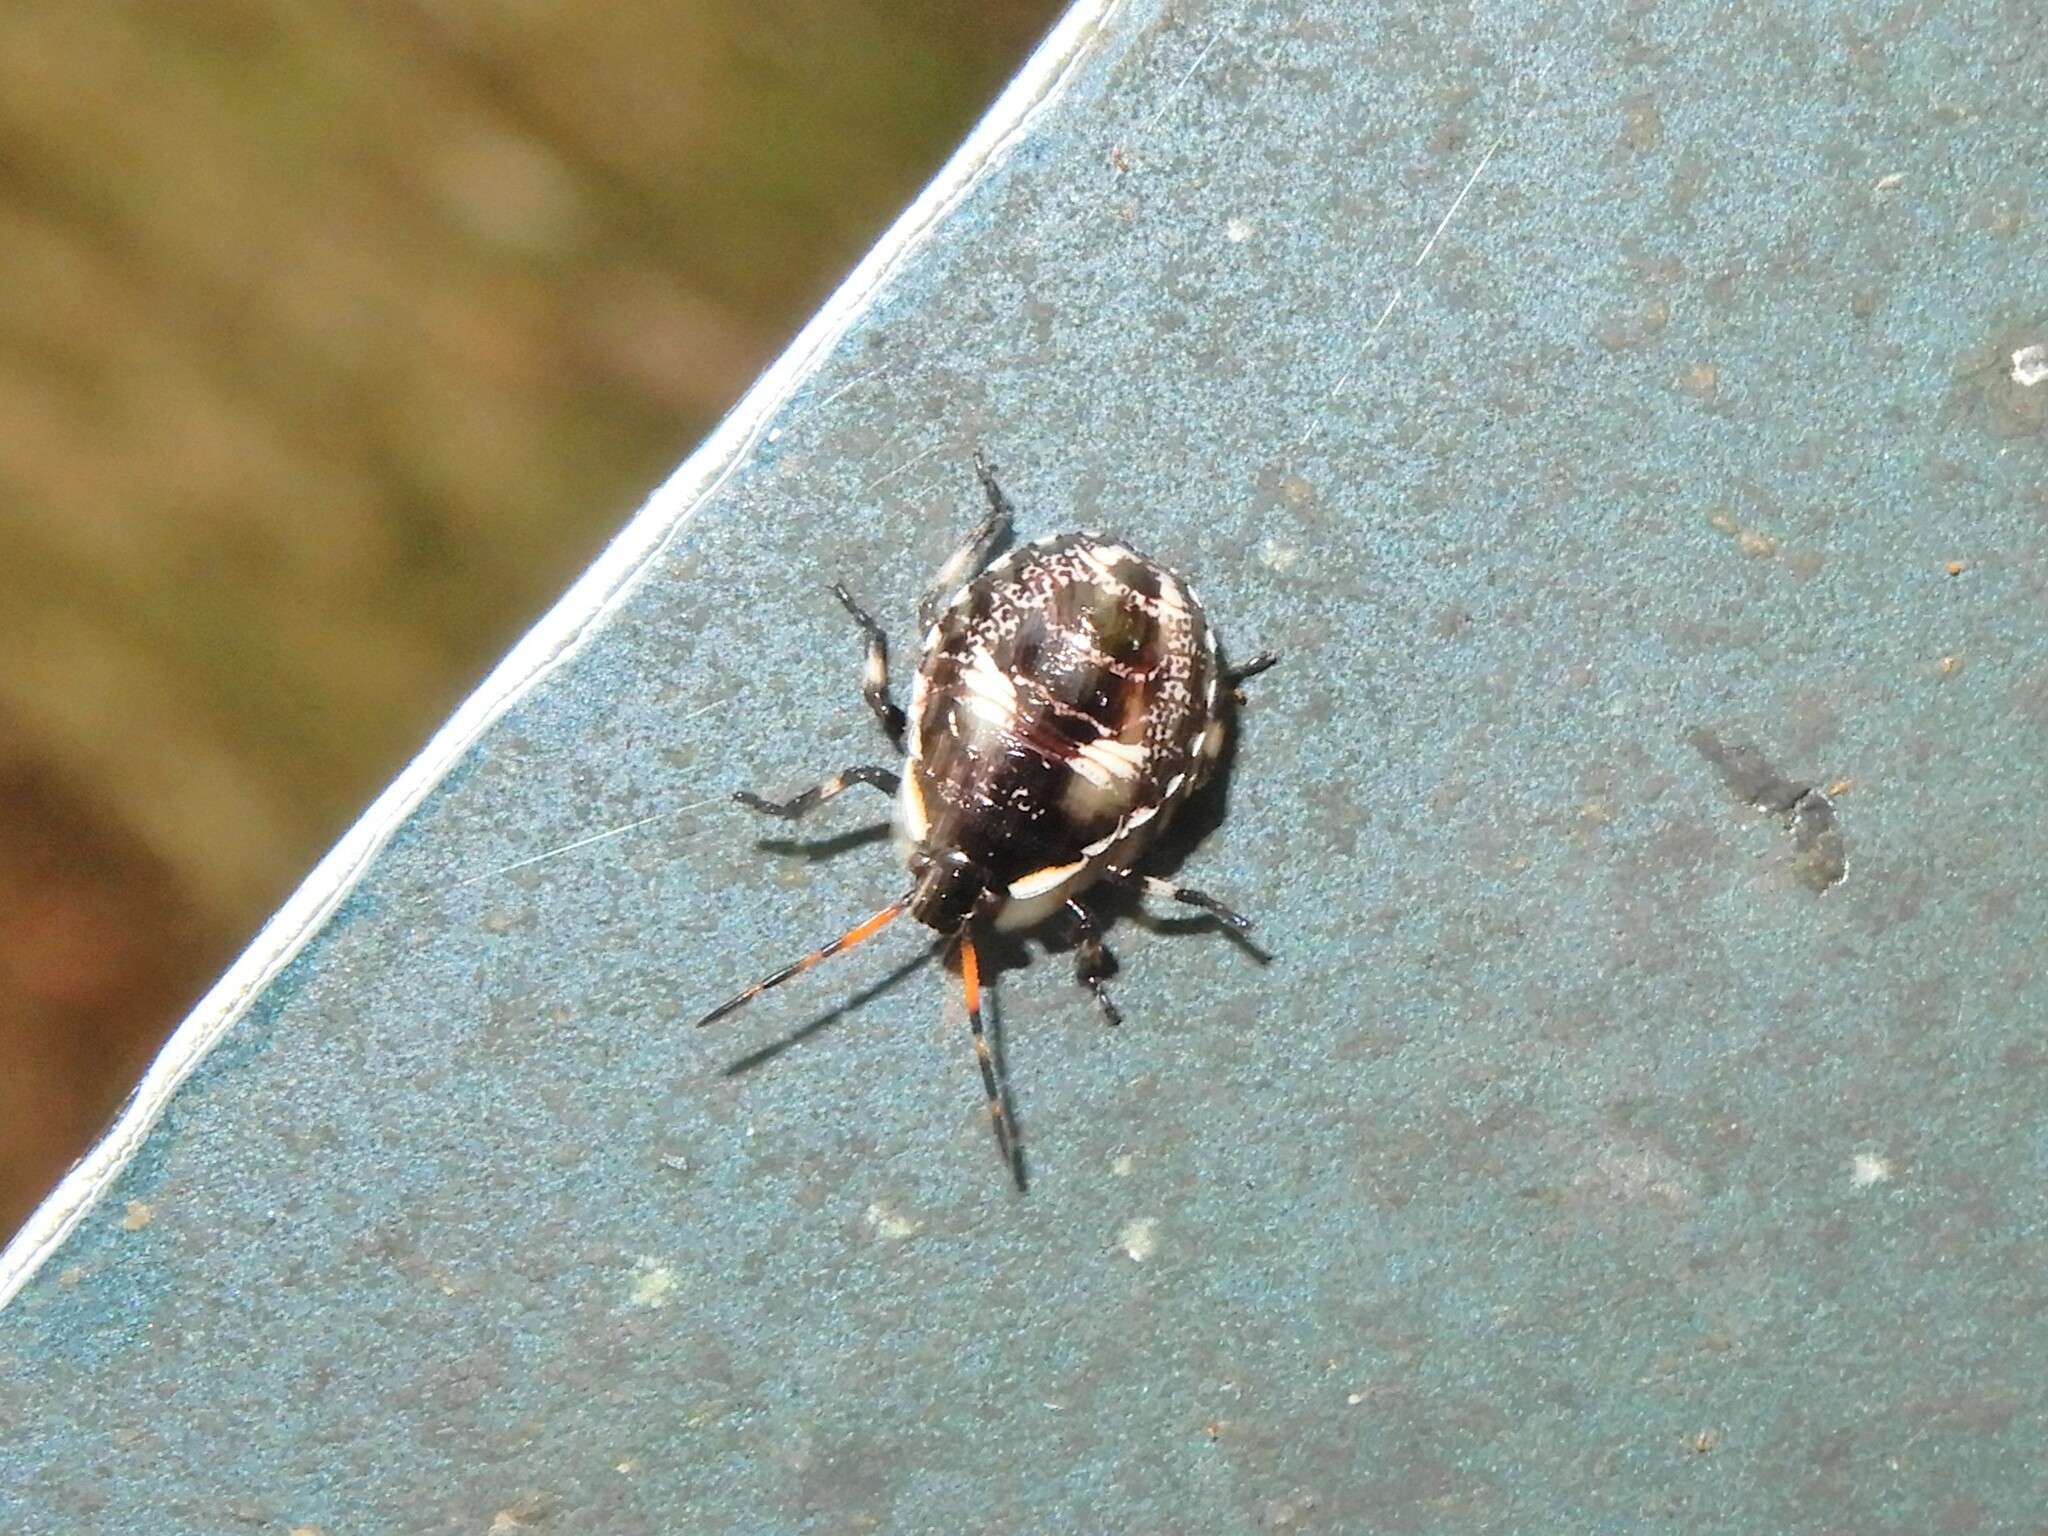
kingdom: Animalia
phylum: Arthropoda
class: Insecta
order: Hemiptera
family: Pentatomidae
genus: Cermatulus
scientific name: Cermatulus nasalis
